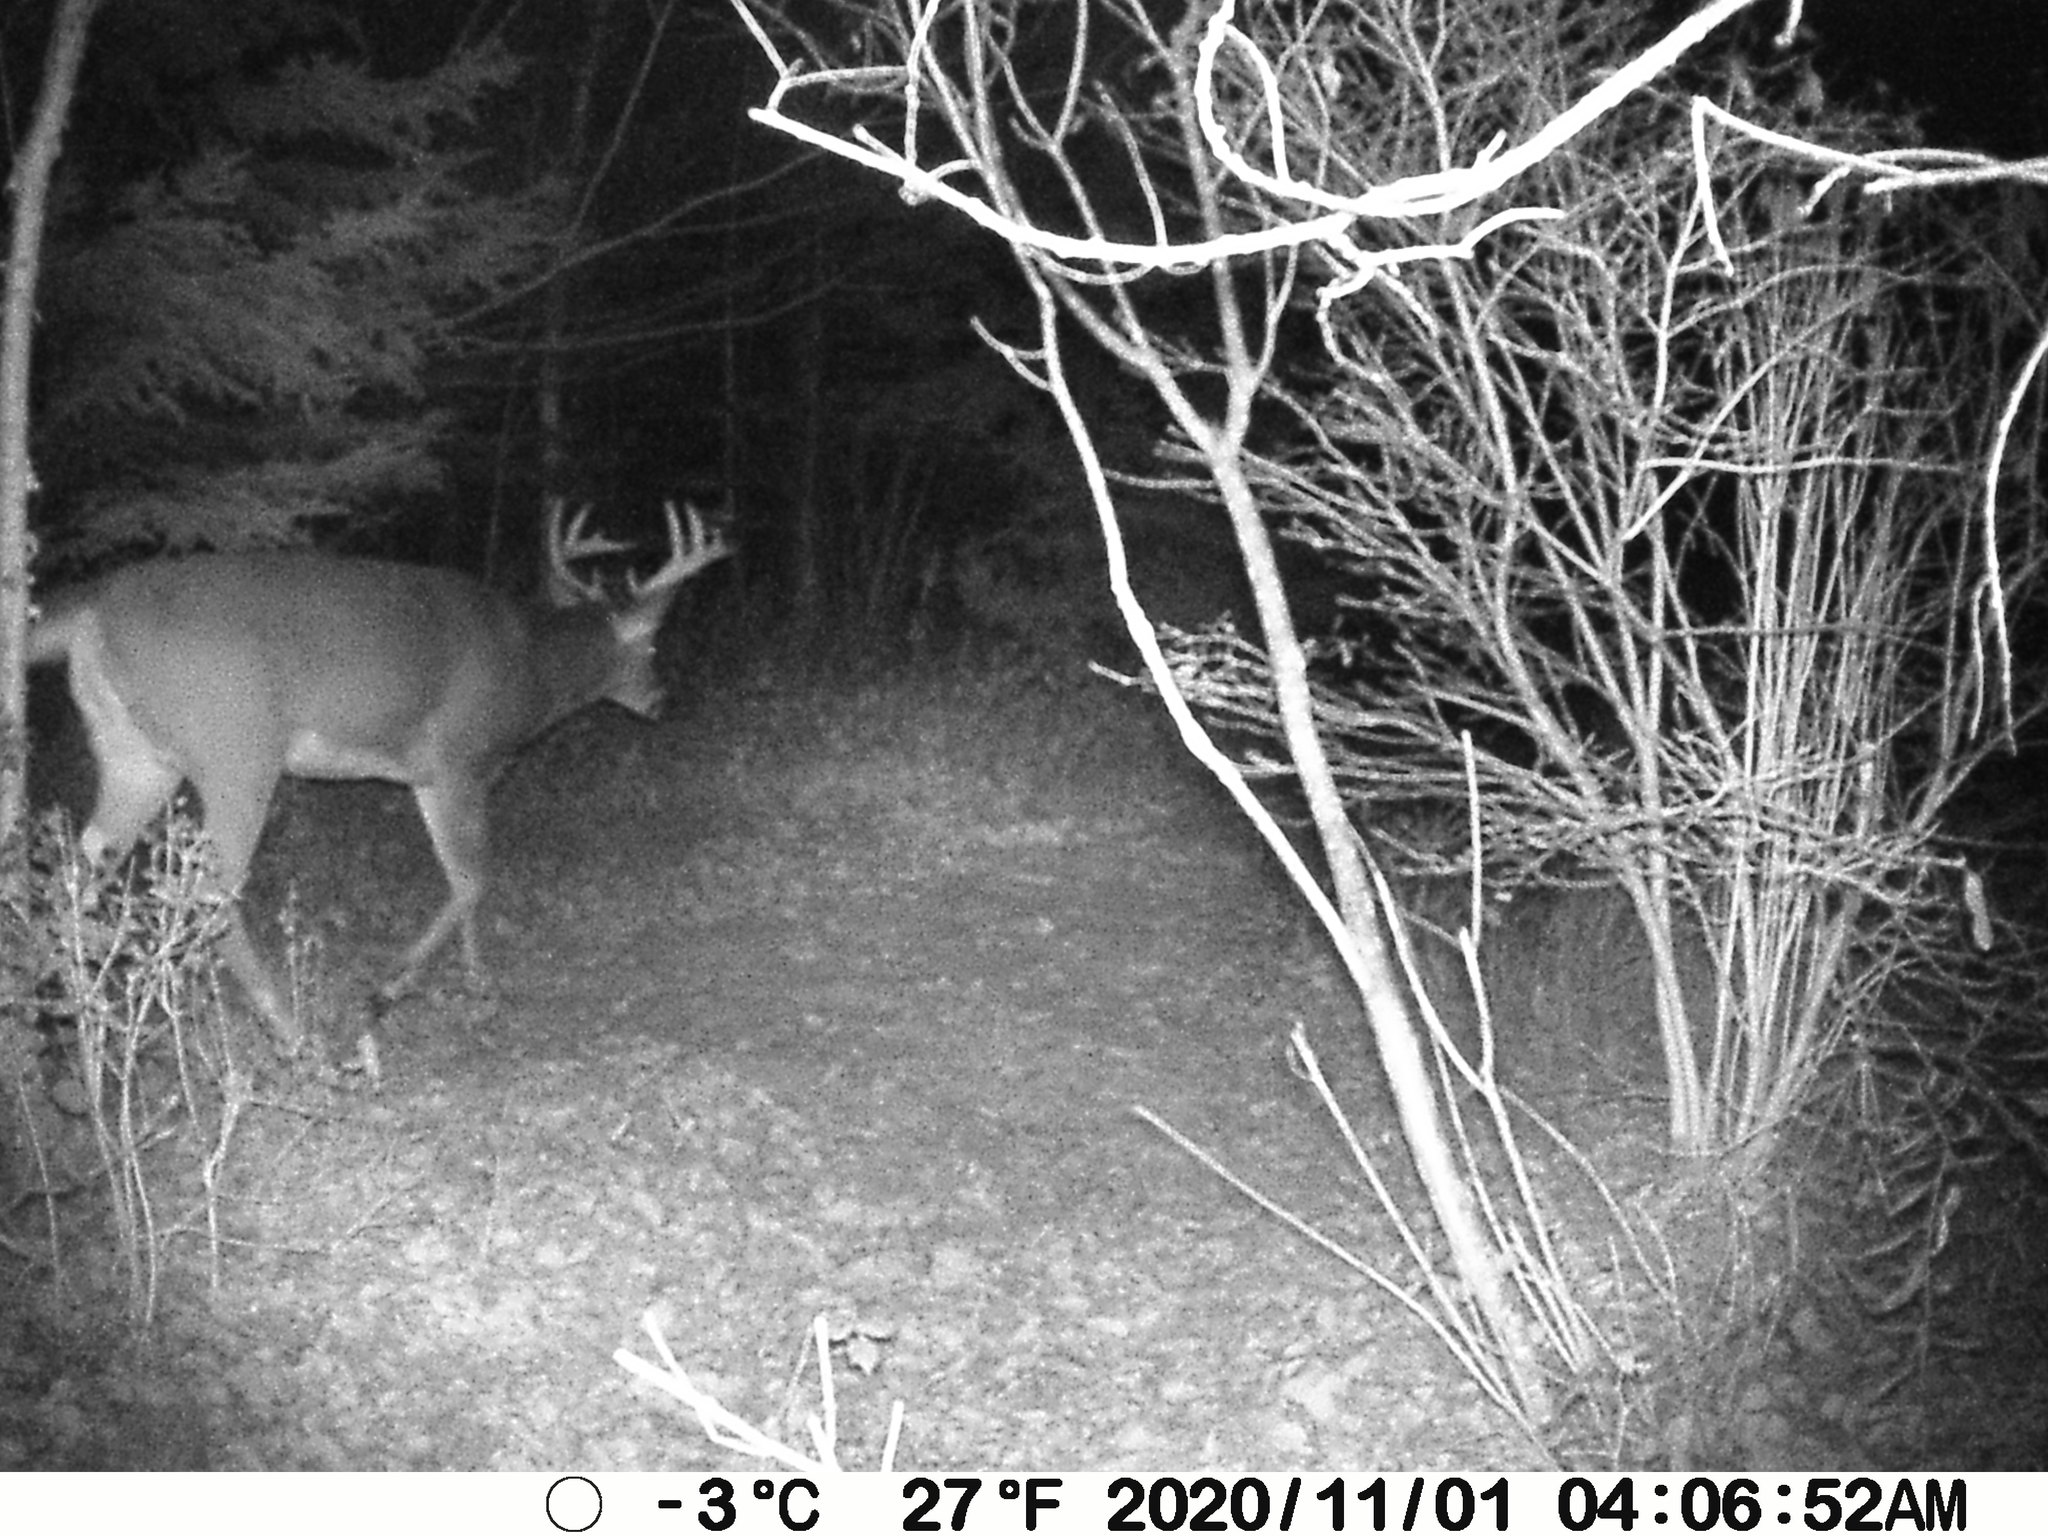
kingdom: Animalia
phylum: Chordata
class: Mammalia
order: Artiodactyla
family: Cervidae
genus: Odocoileus
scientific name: Odocoileus virginianus
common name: White-tailed deer
